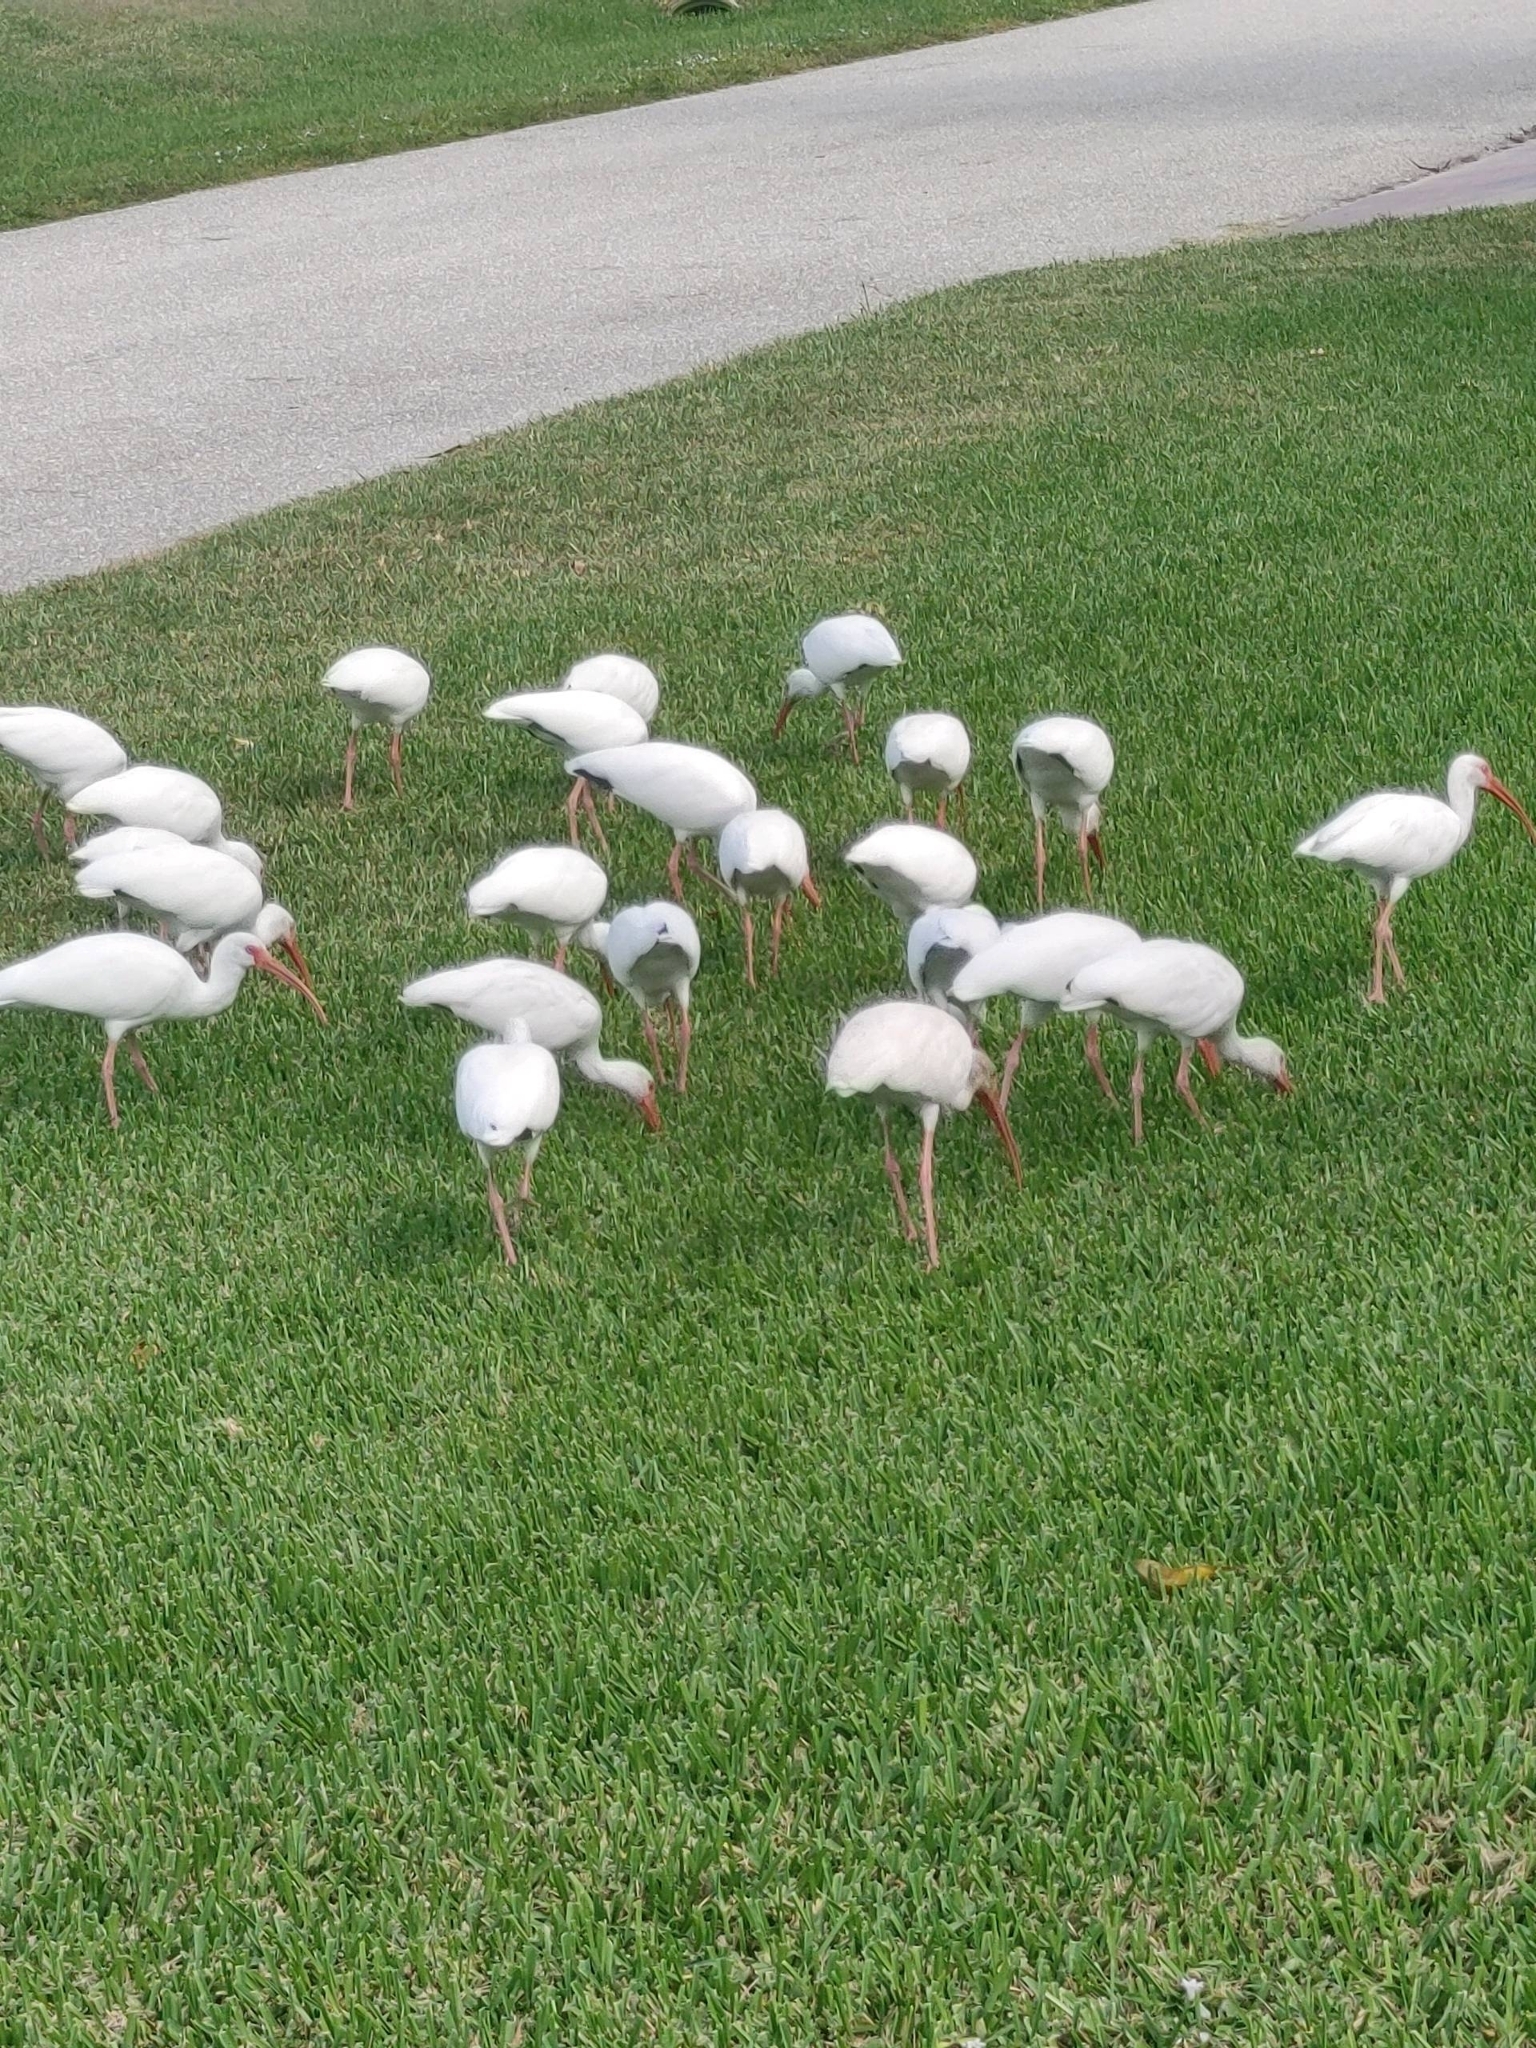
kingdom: Animalia
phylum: Chordata
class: Aves
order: Pelecaniformes
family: Threskiornithidae
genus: Eudocimus
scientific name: Eudocimus albus
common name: White ibis
